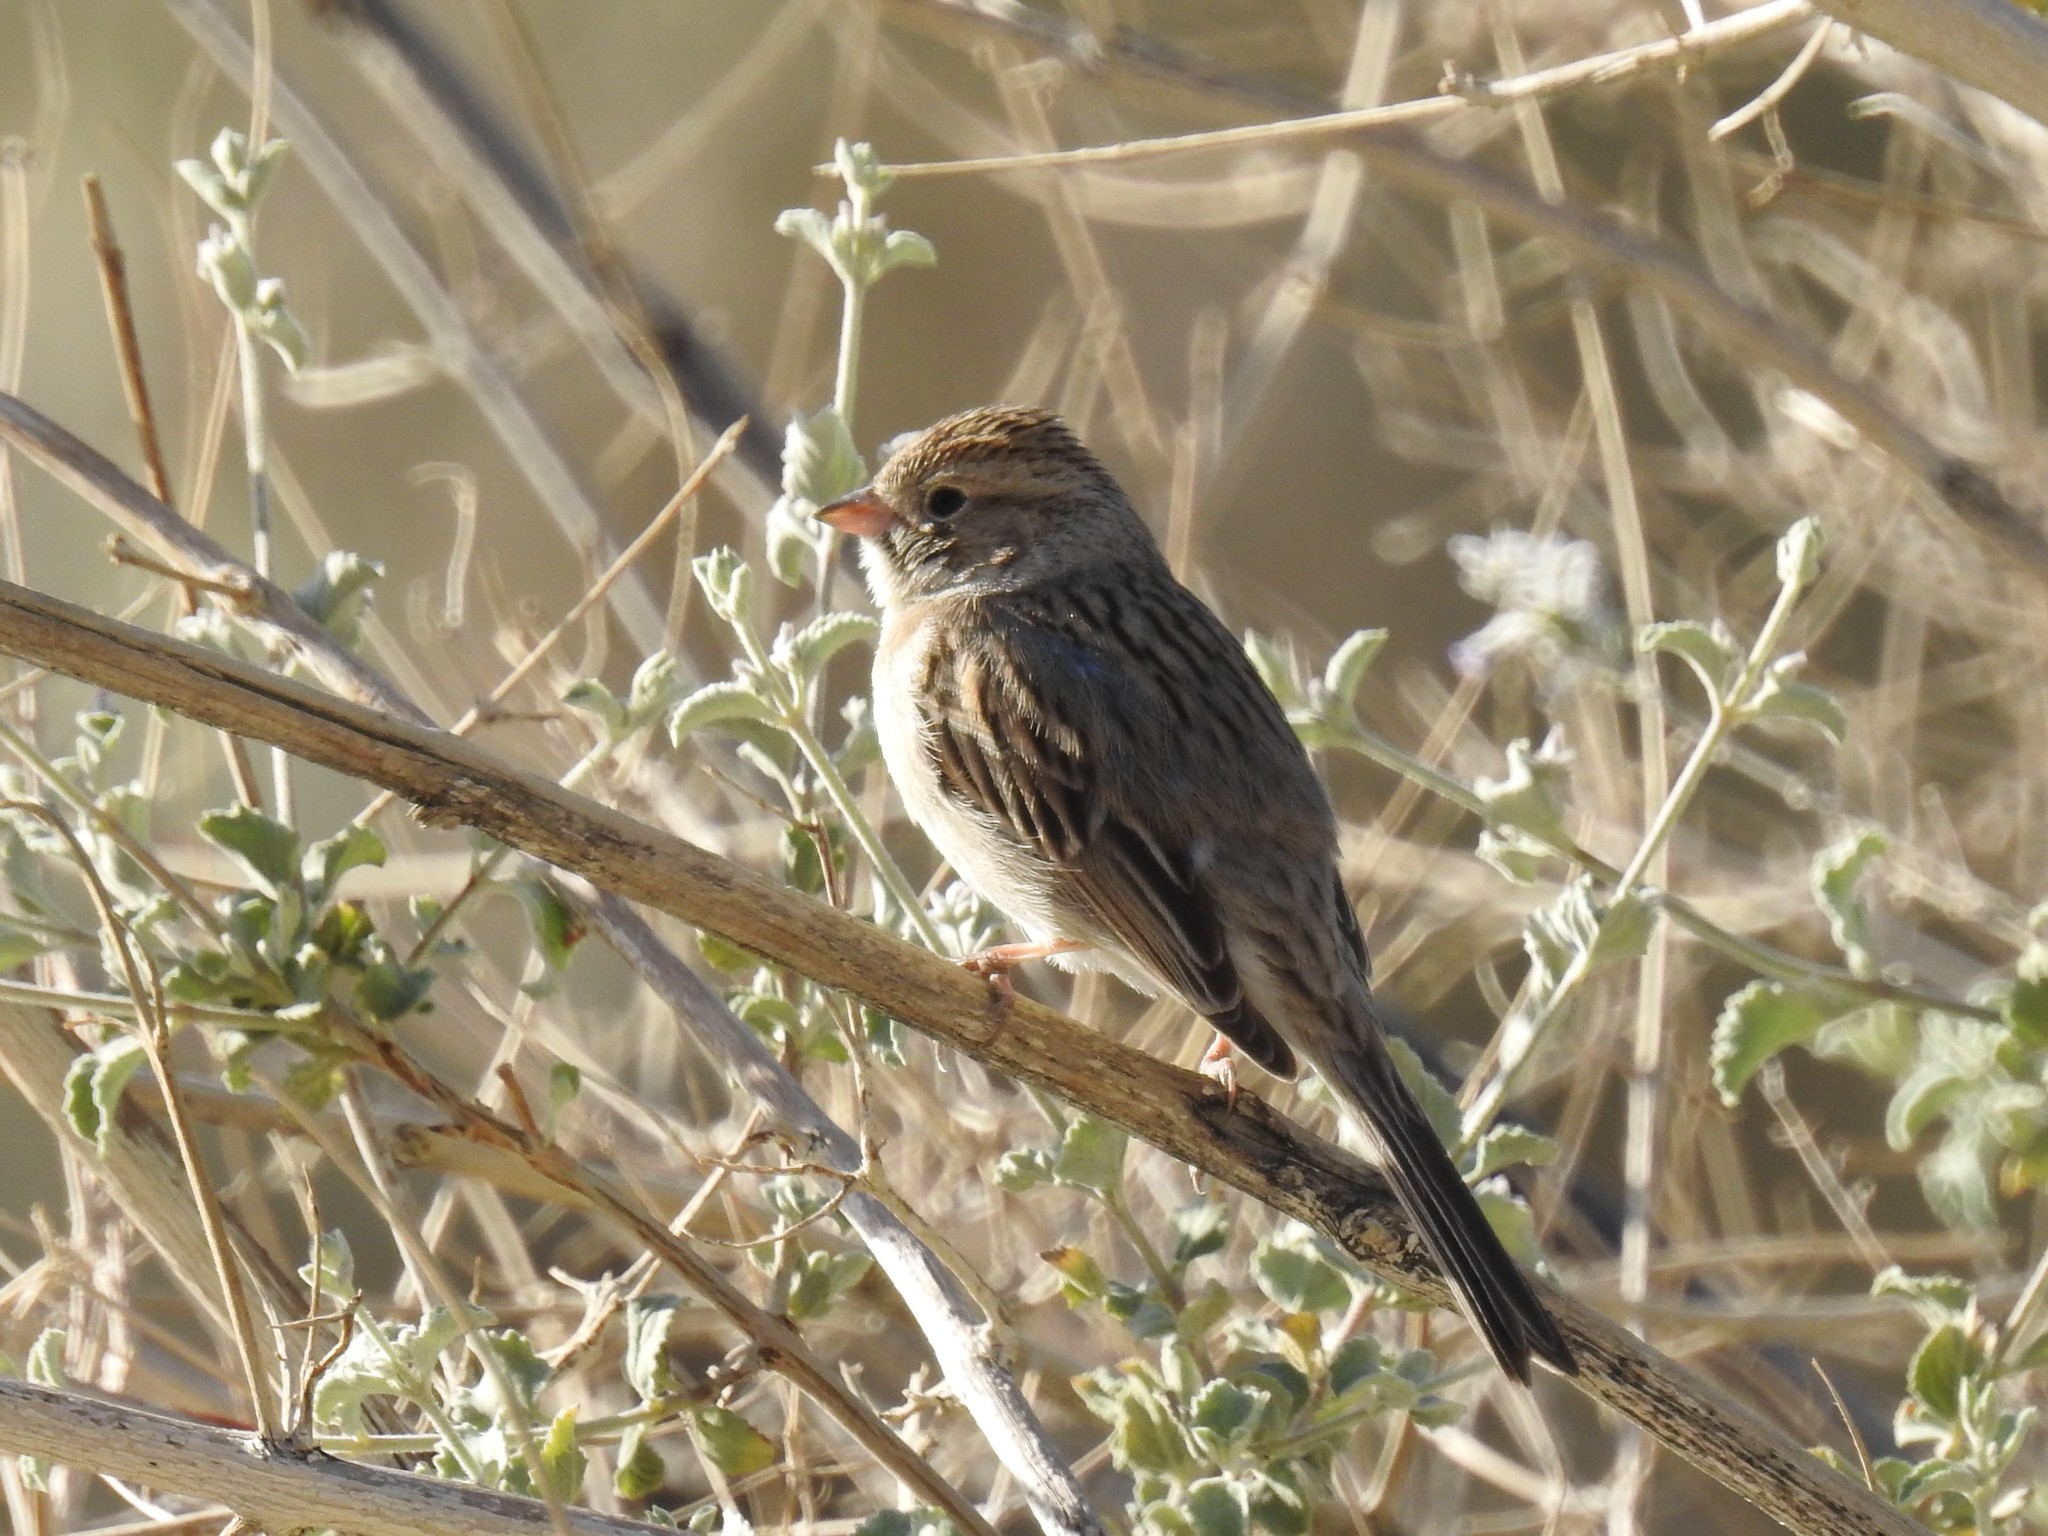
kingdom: Animalia
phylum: Chordata
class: Aves
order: Passeriformes
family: Passerellidae
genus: Spizella
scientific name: Spizella breweri
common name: Brewer's sparrow
